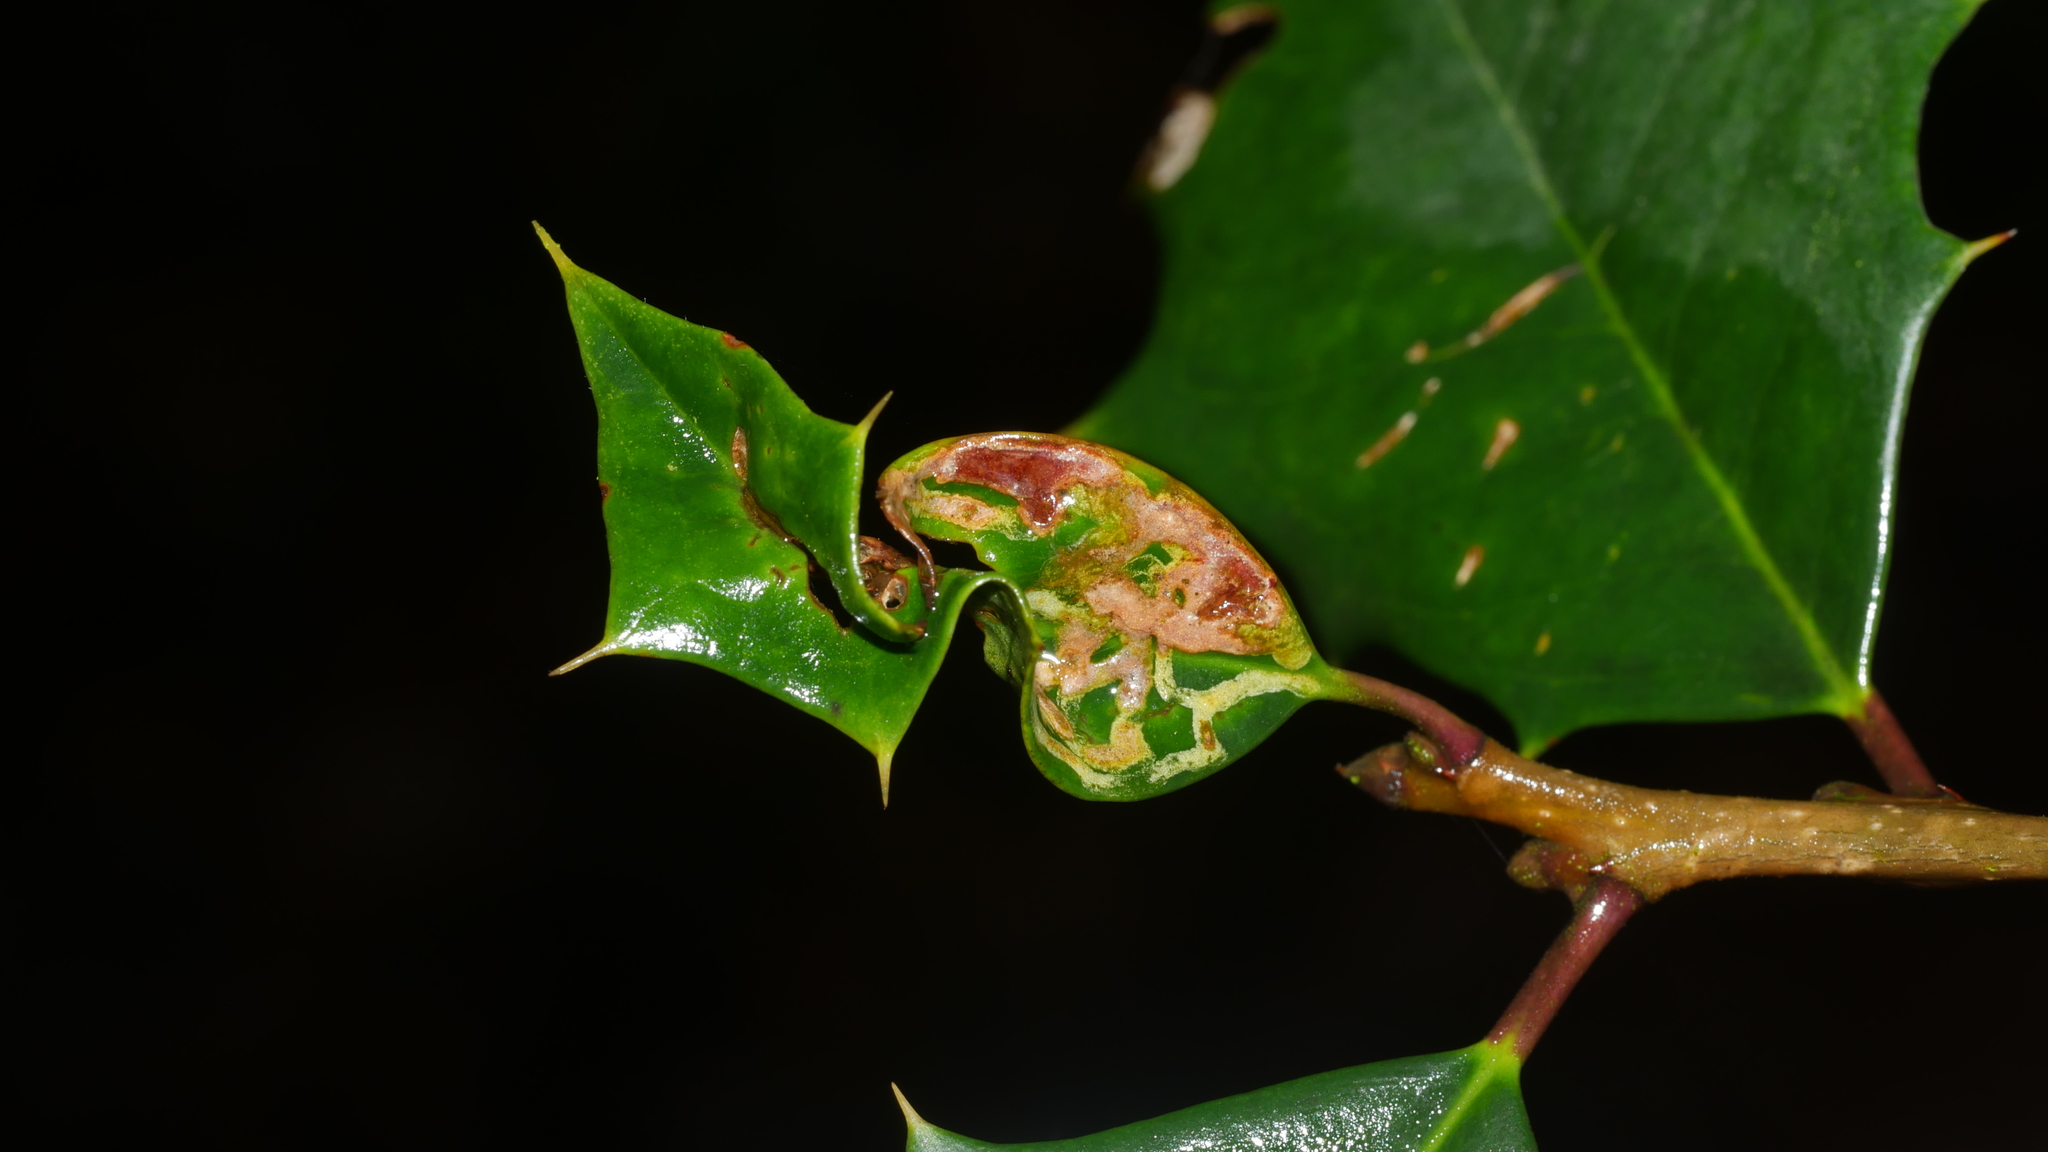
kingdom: Animalia
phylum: Arthropoda
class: Insecta
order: Diptera
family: Agromyzidae
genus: Phytomyza
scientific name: Phytomyza opacae
